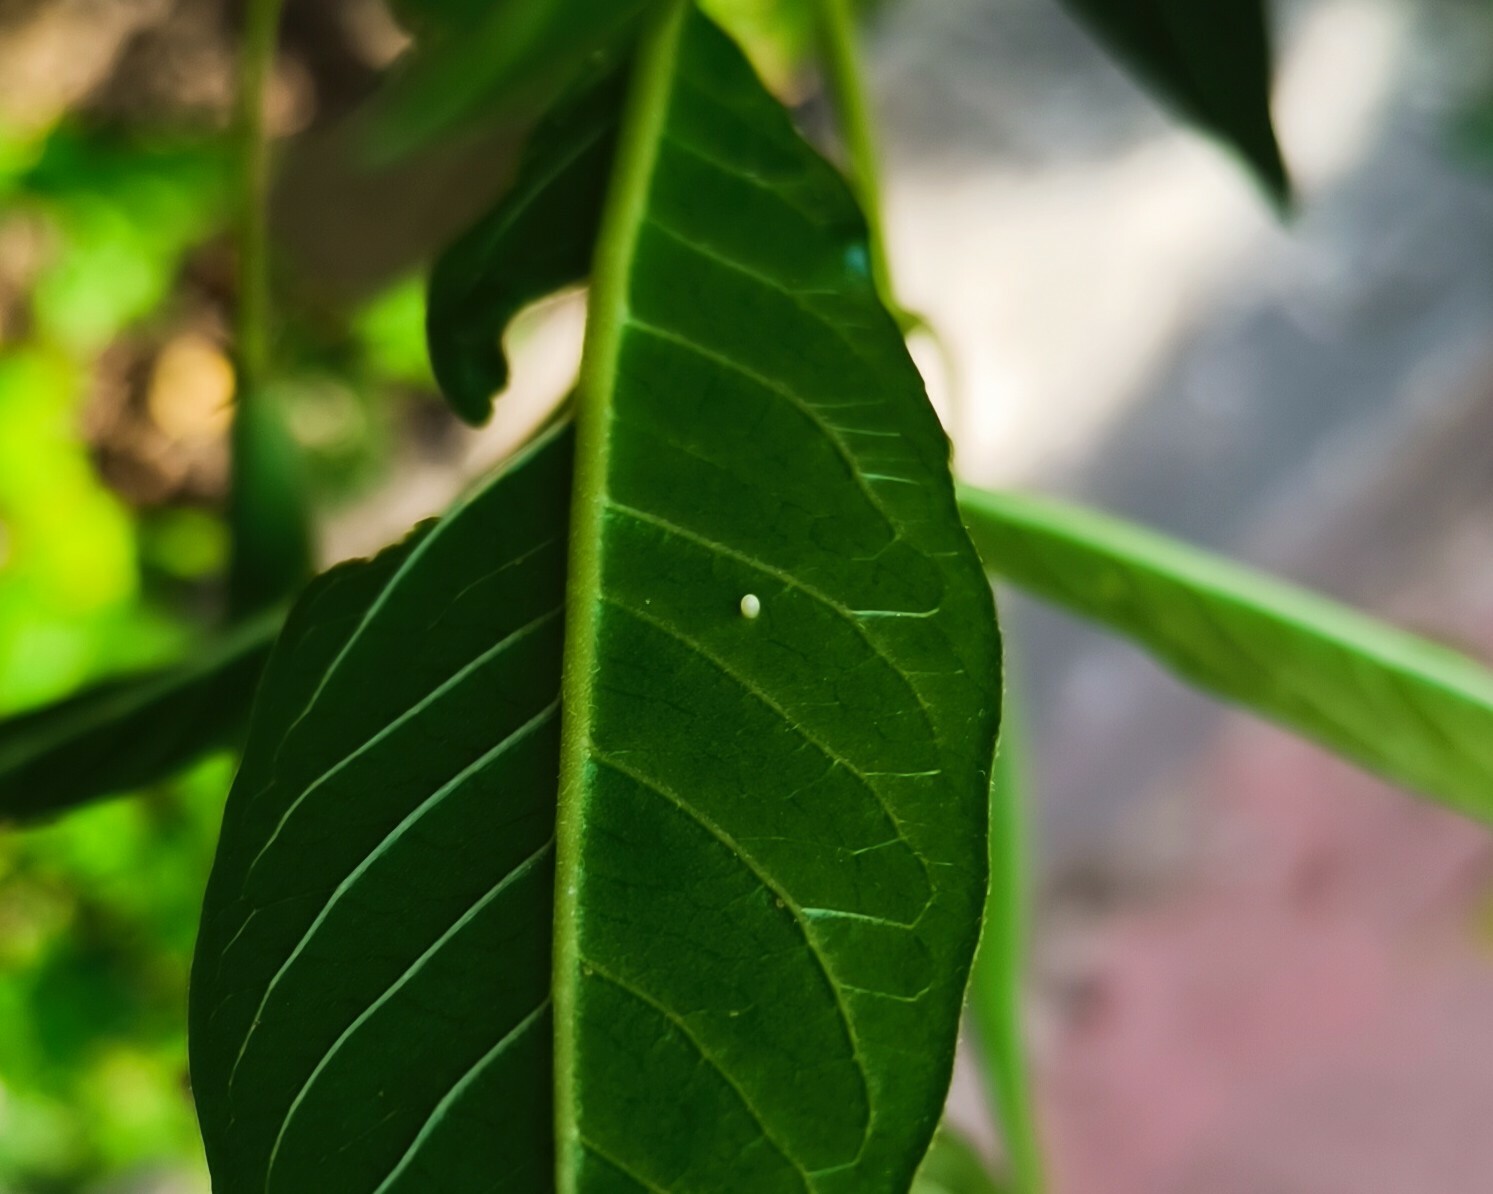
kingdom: Animalia
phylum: Arthropoda
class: Insecta
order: Lepidoptera
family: Nymphalidae
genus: Danaus
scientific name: Danaus plexippus
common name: Monarch
